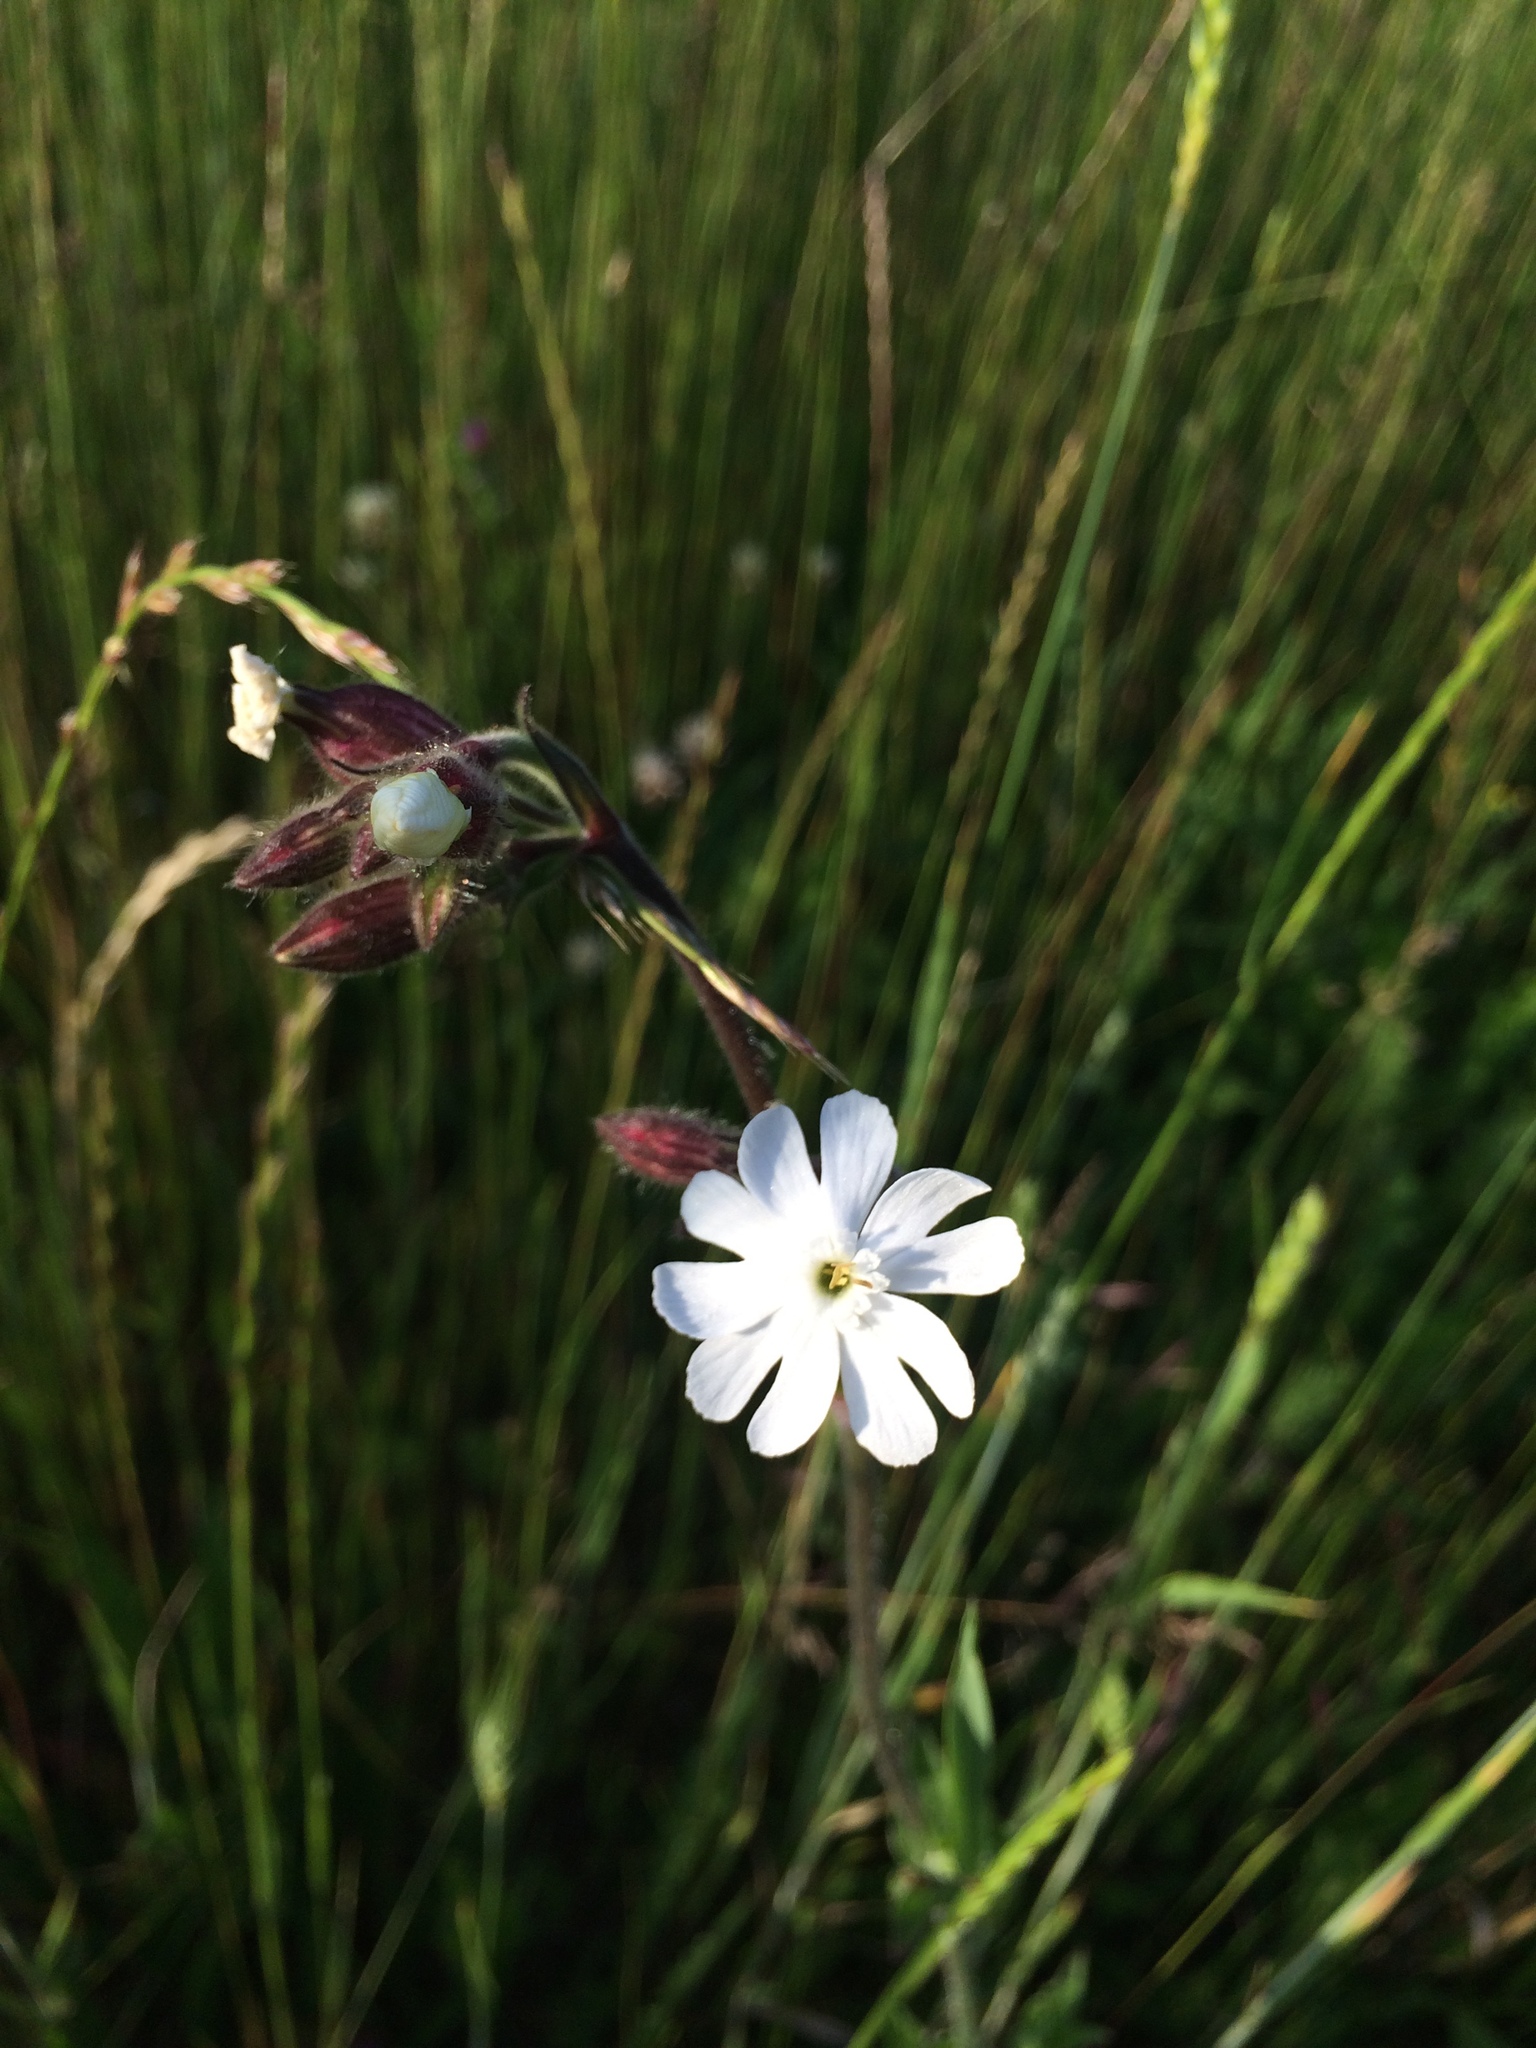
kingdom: Plantae
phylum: Tracheophyta
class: Magnoliopsida
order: Caryophyllales
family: Caryophyllaceae
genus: Silene
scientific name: Silene latifolia
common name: White campion
